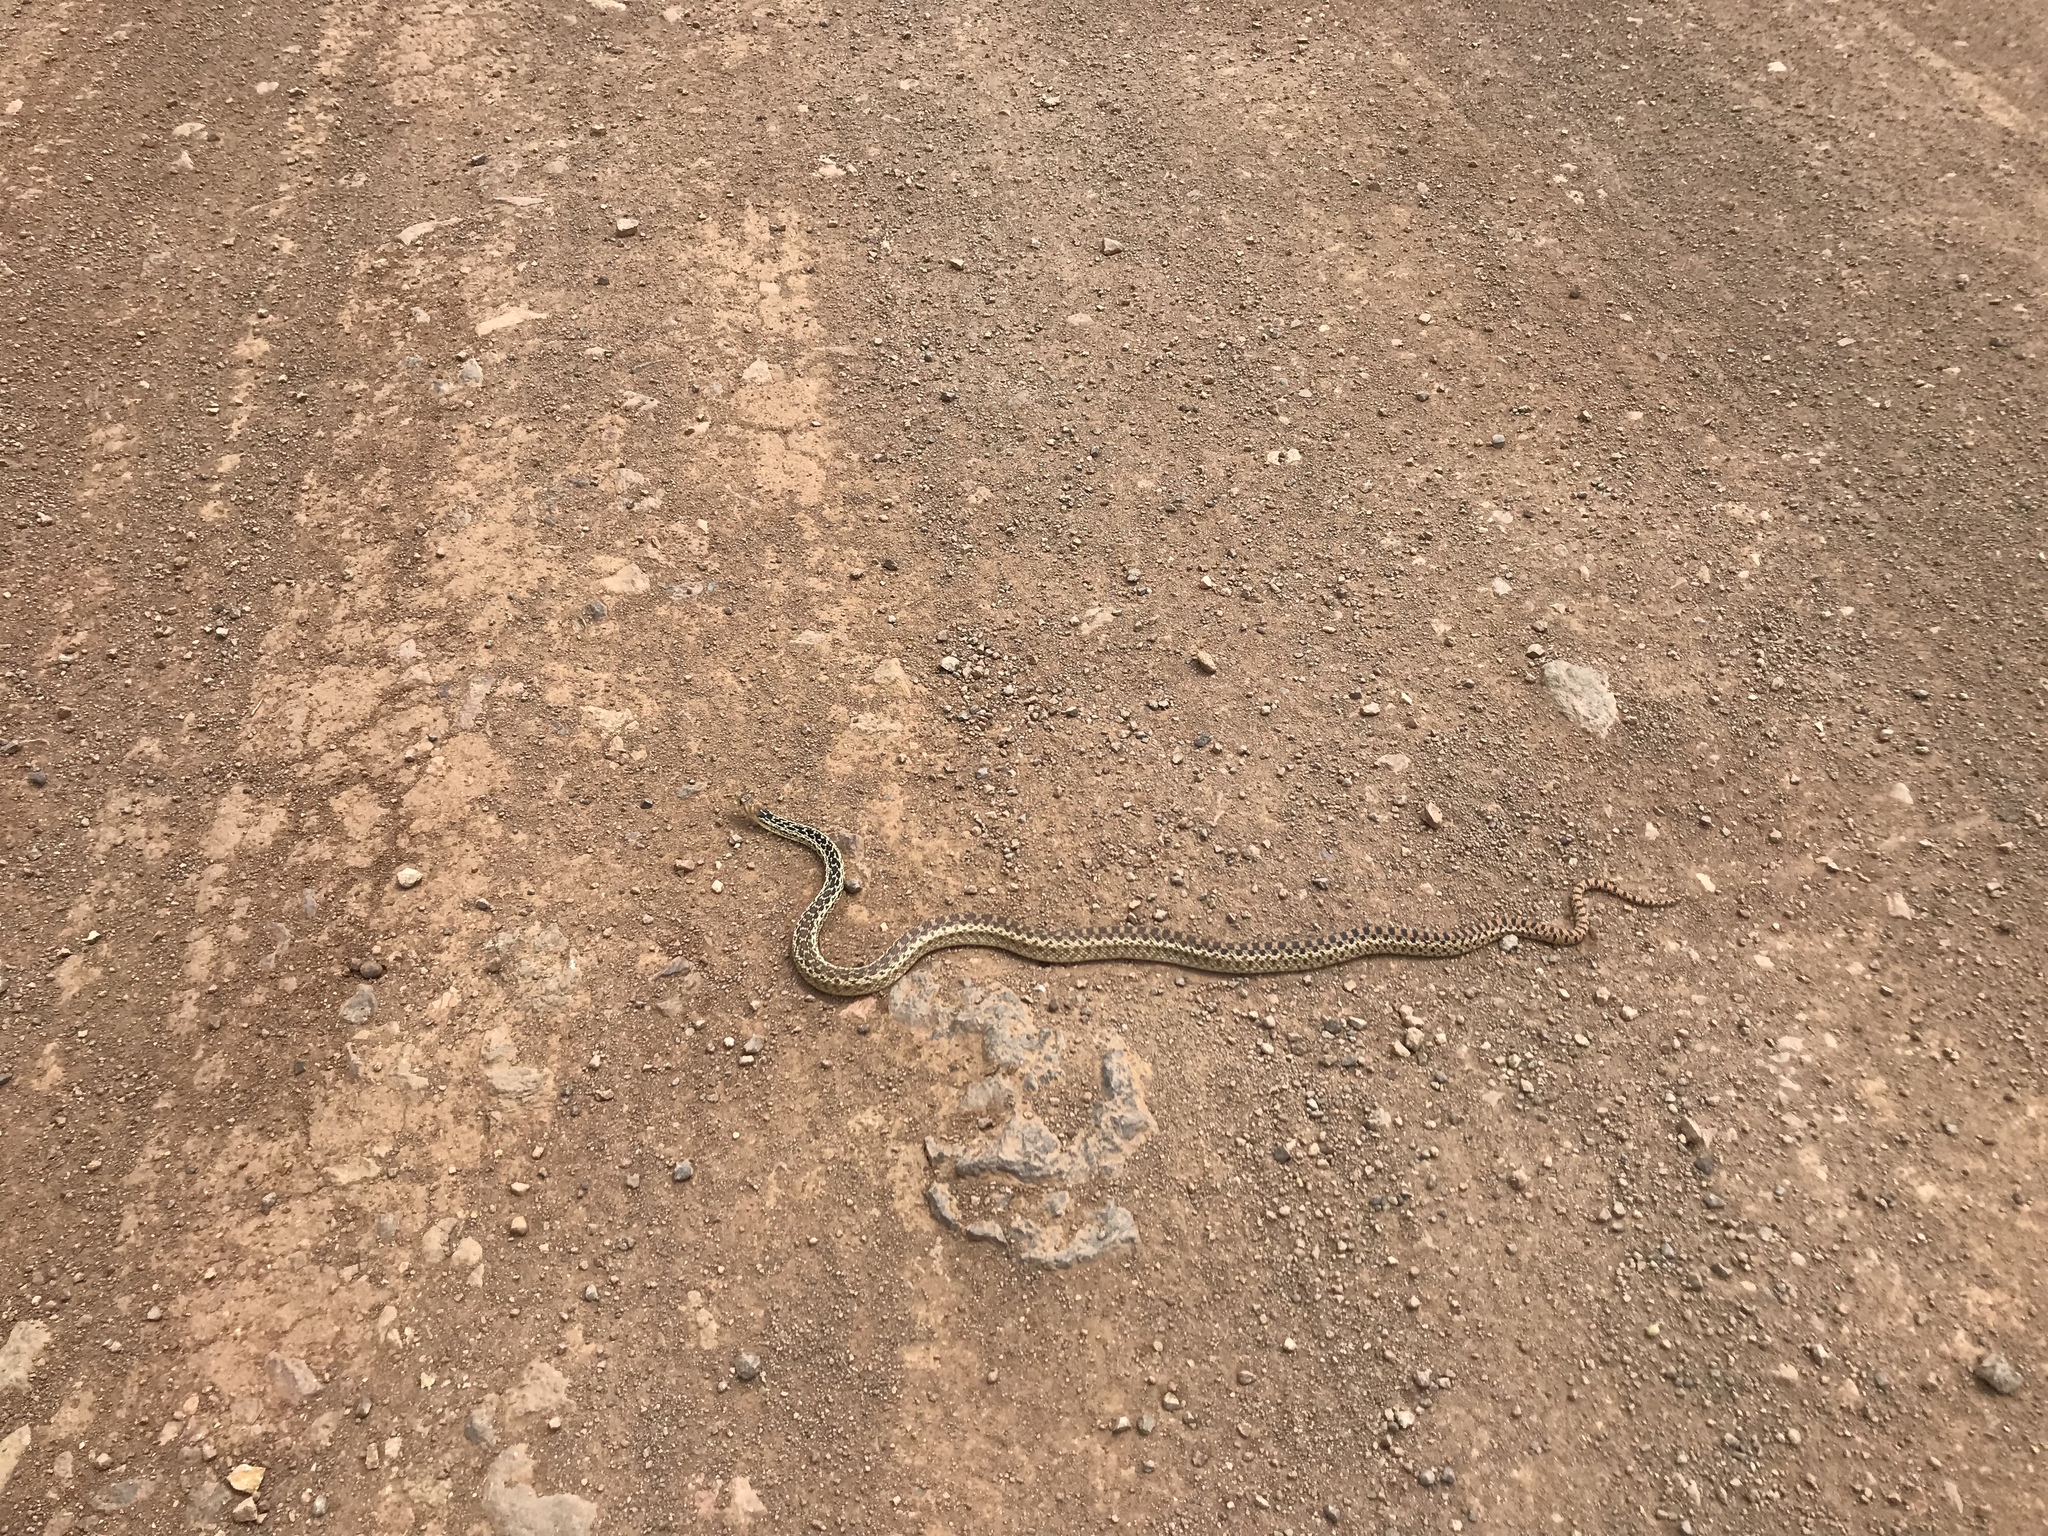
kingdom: Animalia
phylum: Chordata
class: Squamata
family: Colubridae
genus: Pituophis
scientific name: Pituophis catenifer
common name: Gopher snake
